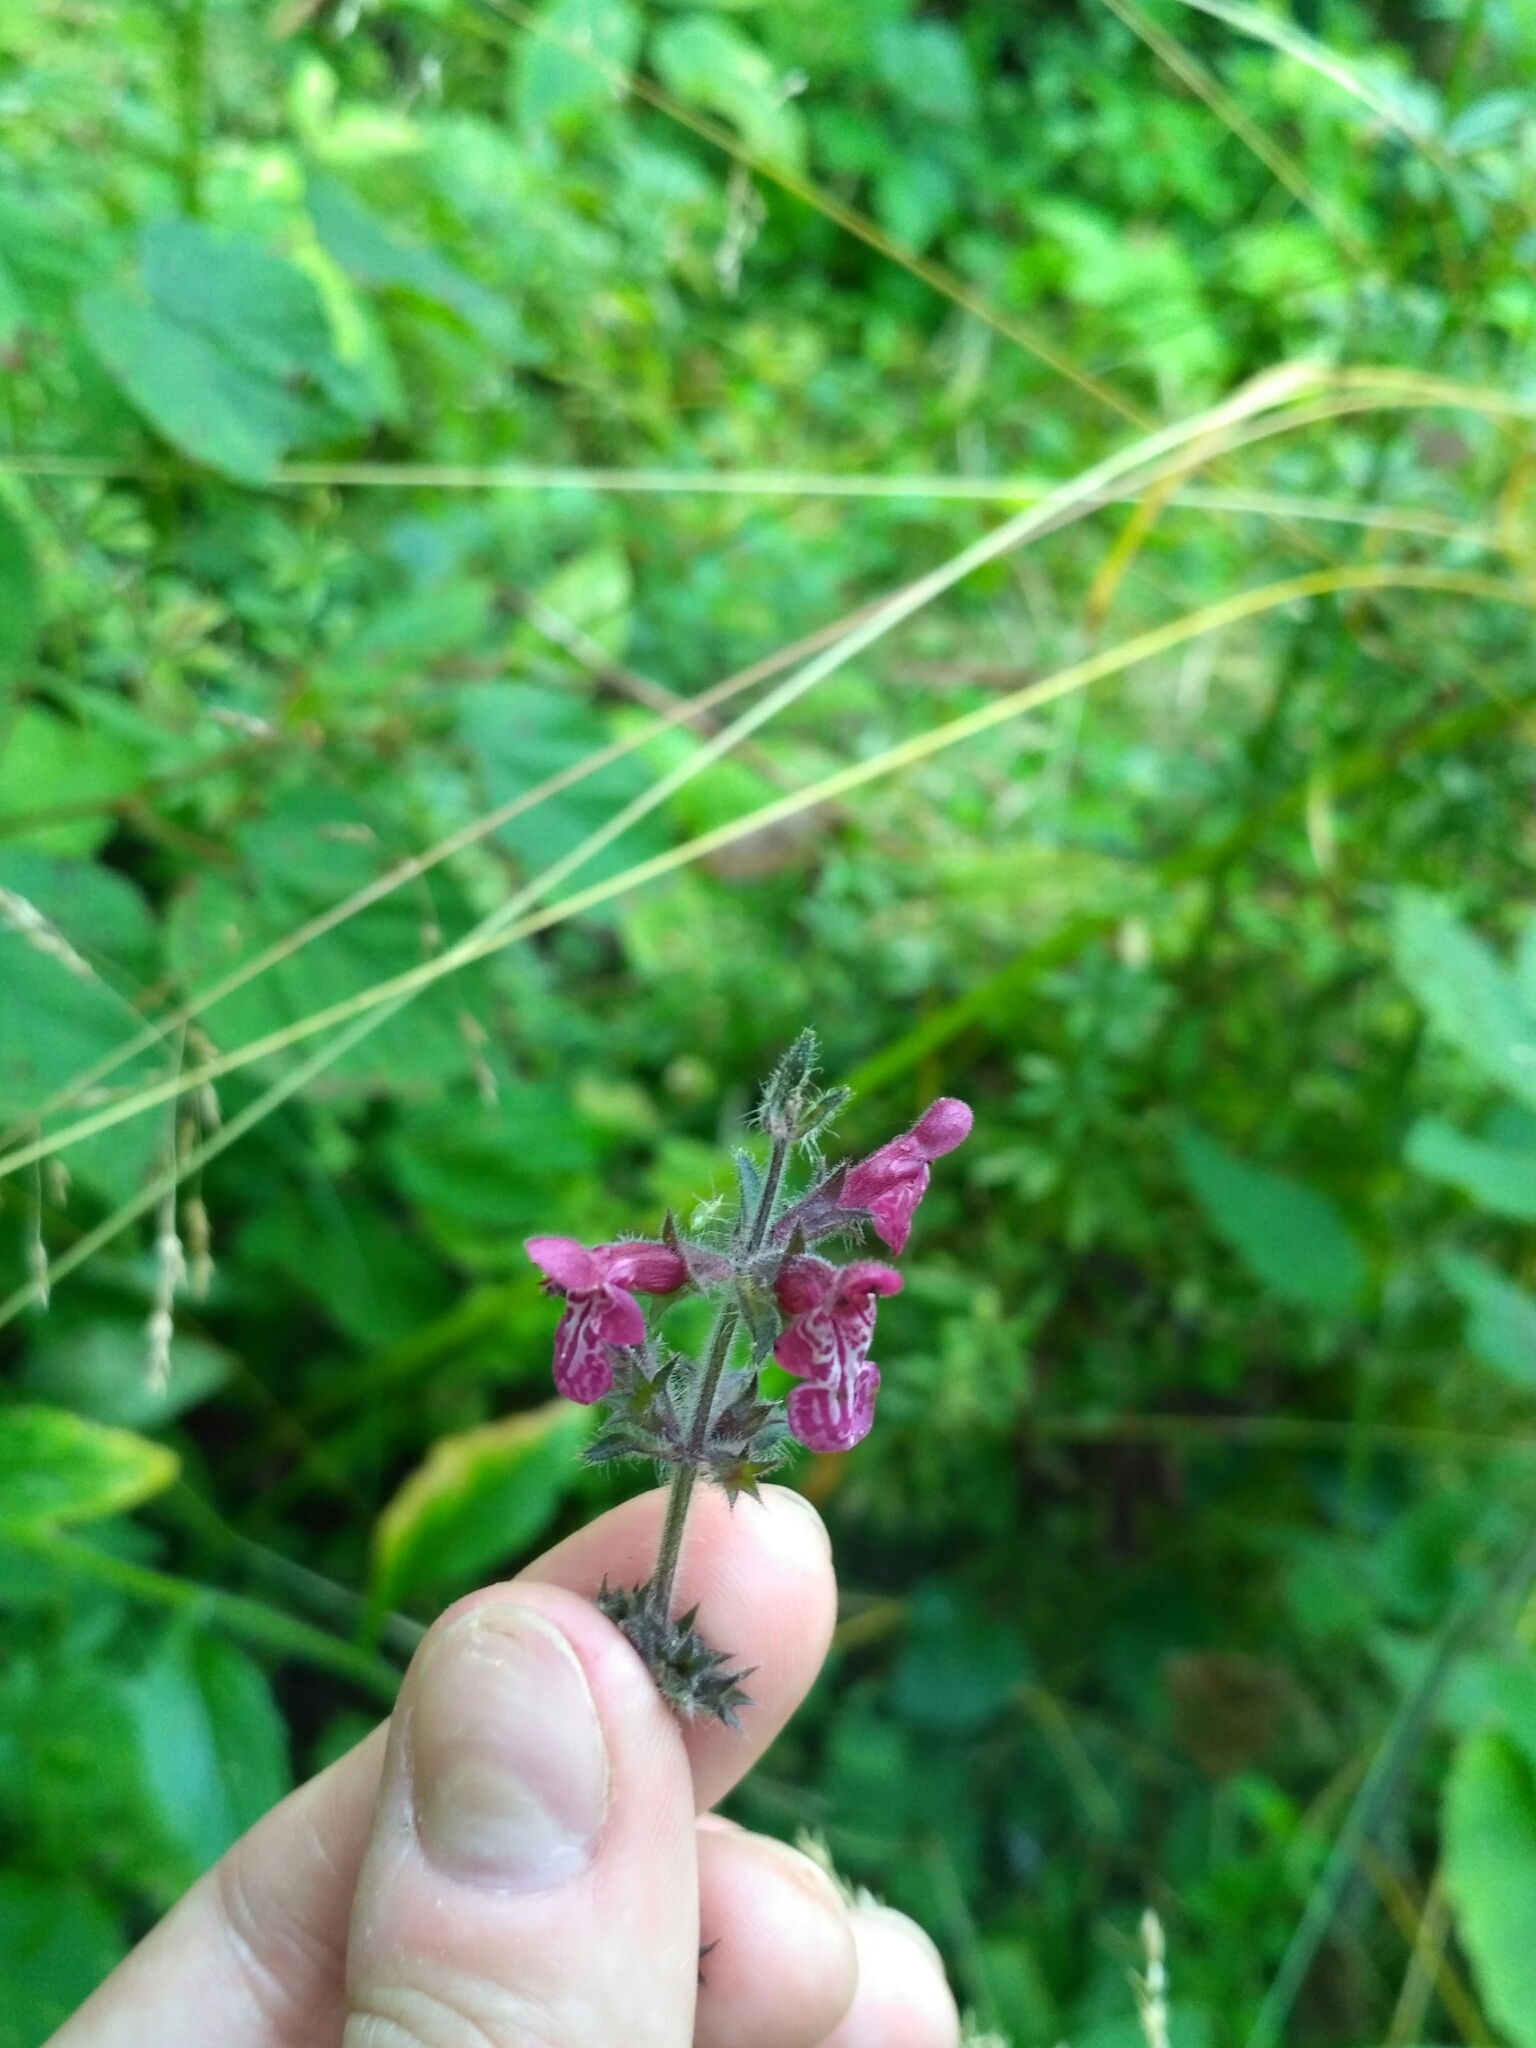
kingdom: Plantae
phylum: Tracheophyta
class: Magnoliopsida
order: Lamiales
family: Lamiaceae
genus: Stachys
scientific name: Stachys sylvatica
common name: Hedge woundwort
